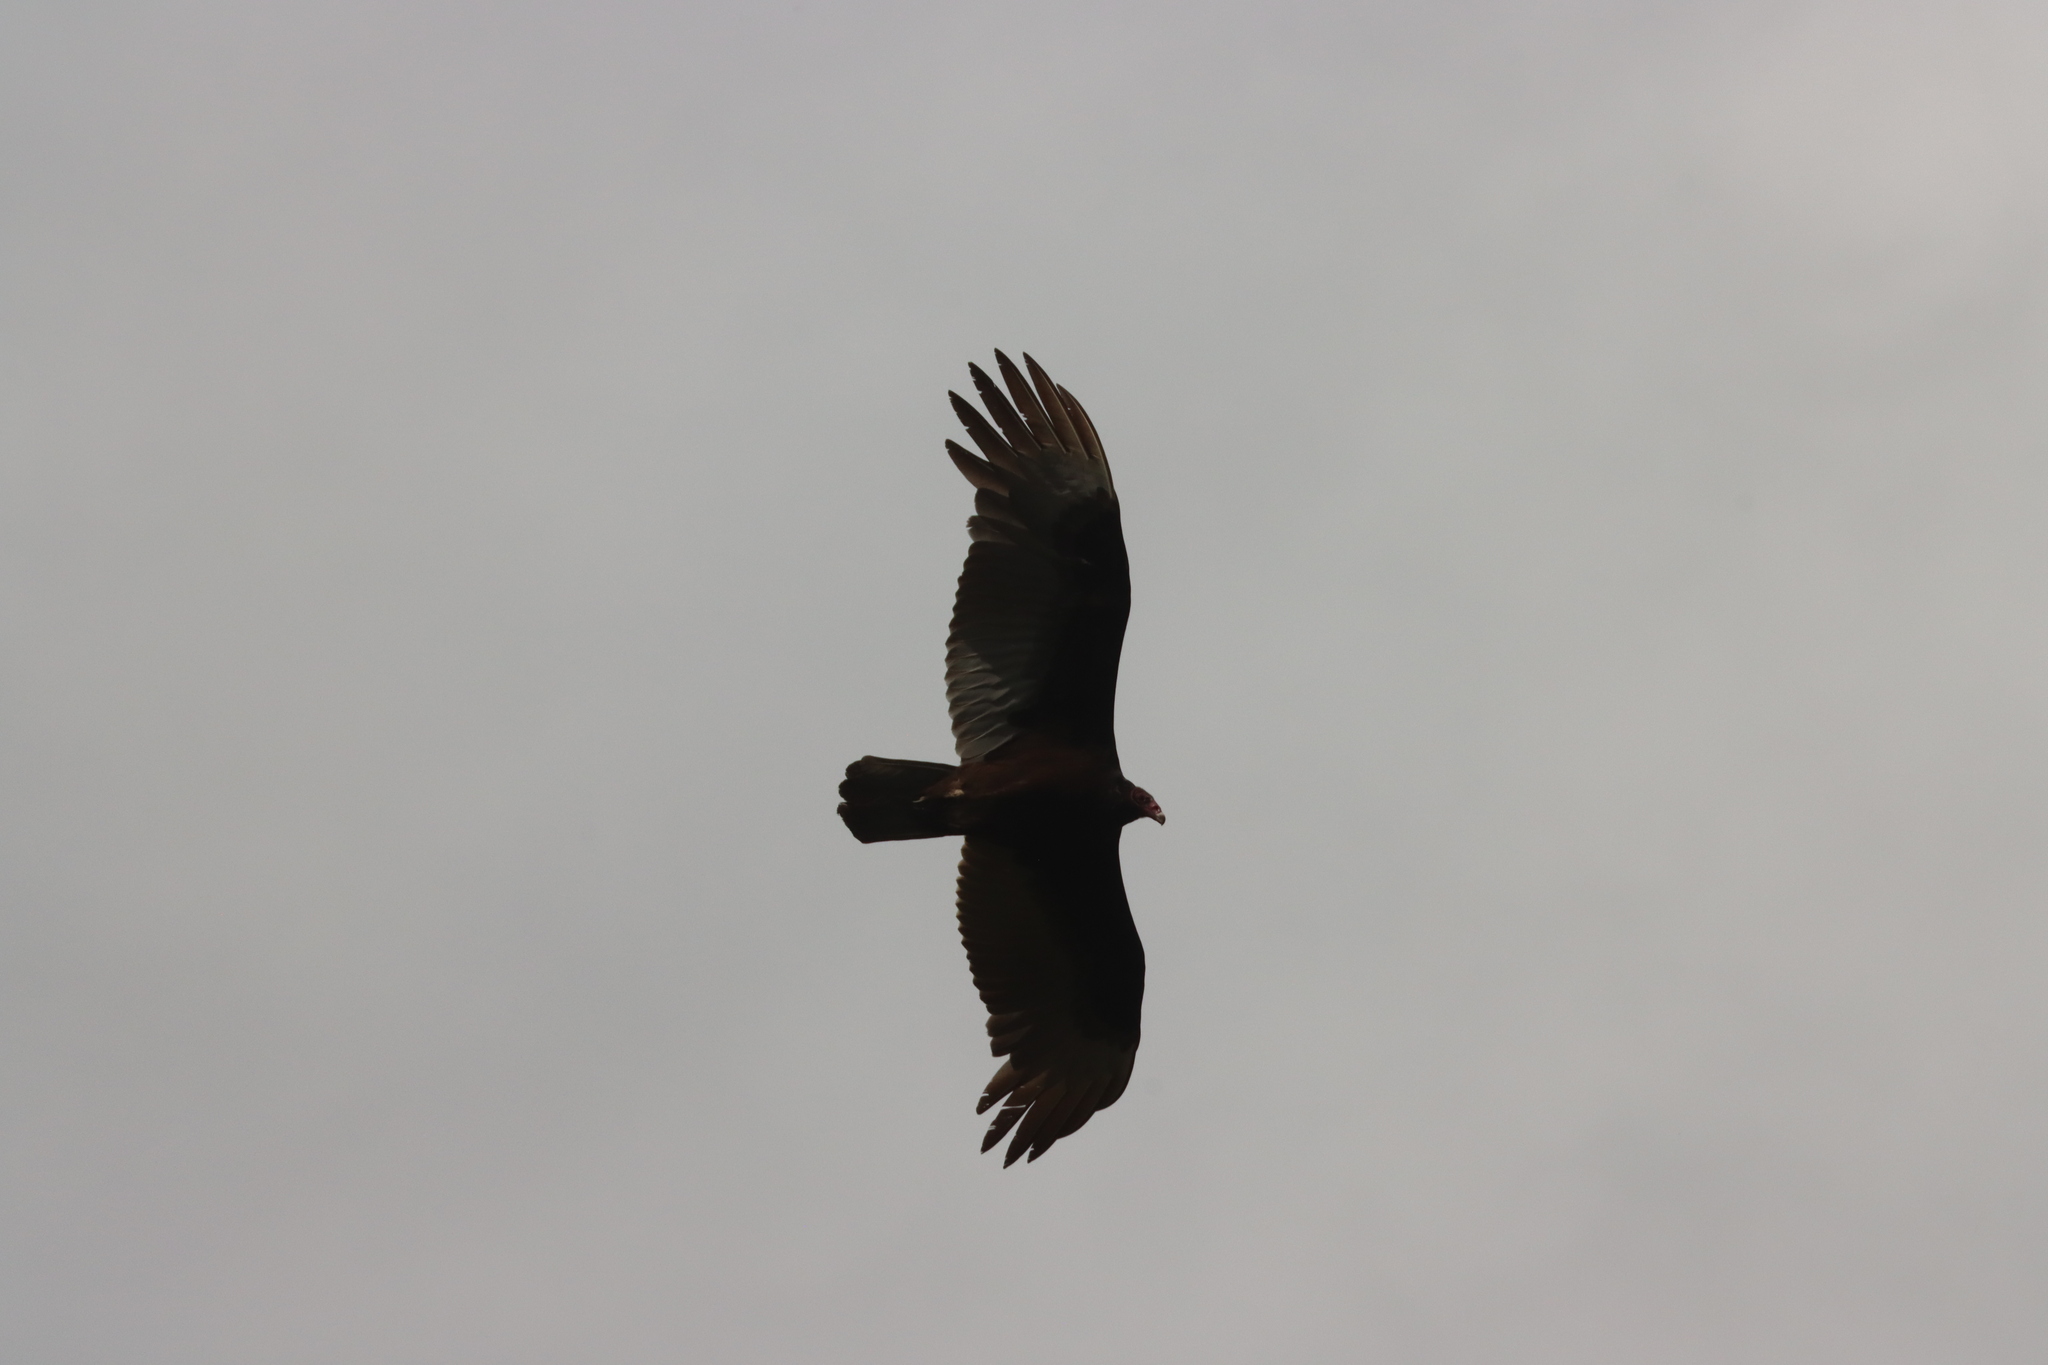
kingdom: Animalia
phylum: Chordata
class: Aves
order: Accipitriformes
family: Cathartidae
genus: Cathartes
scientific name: Cathartes aura
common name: Turkey vulture
